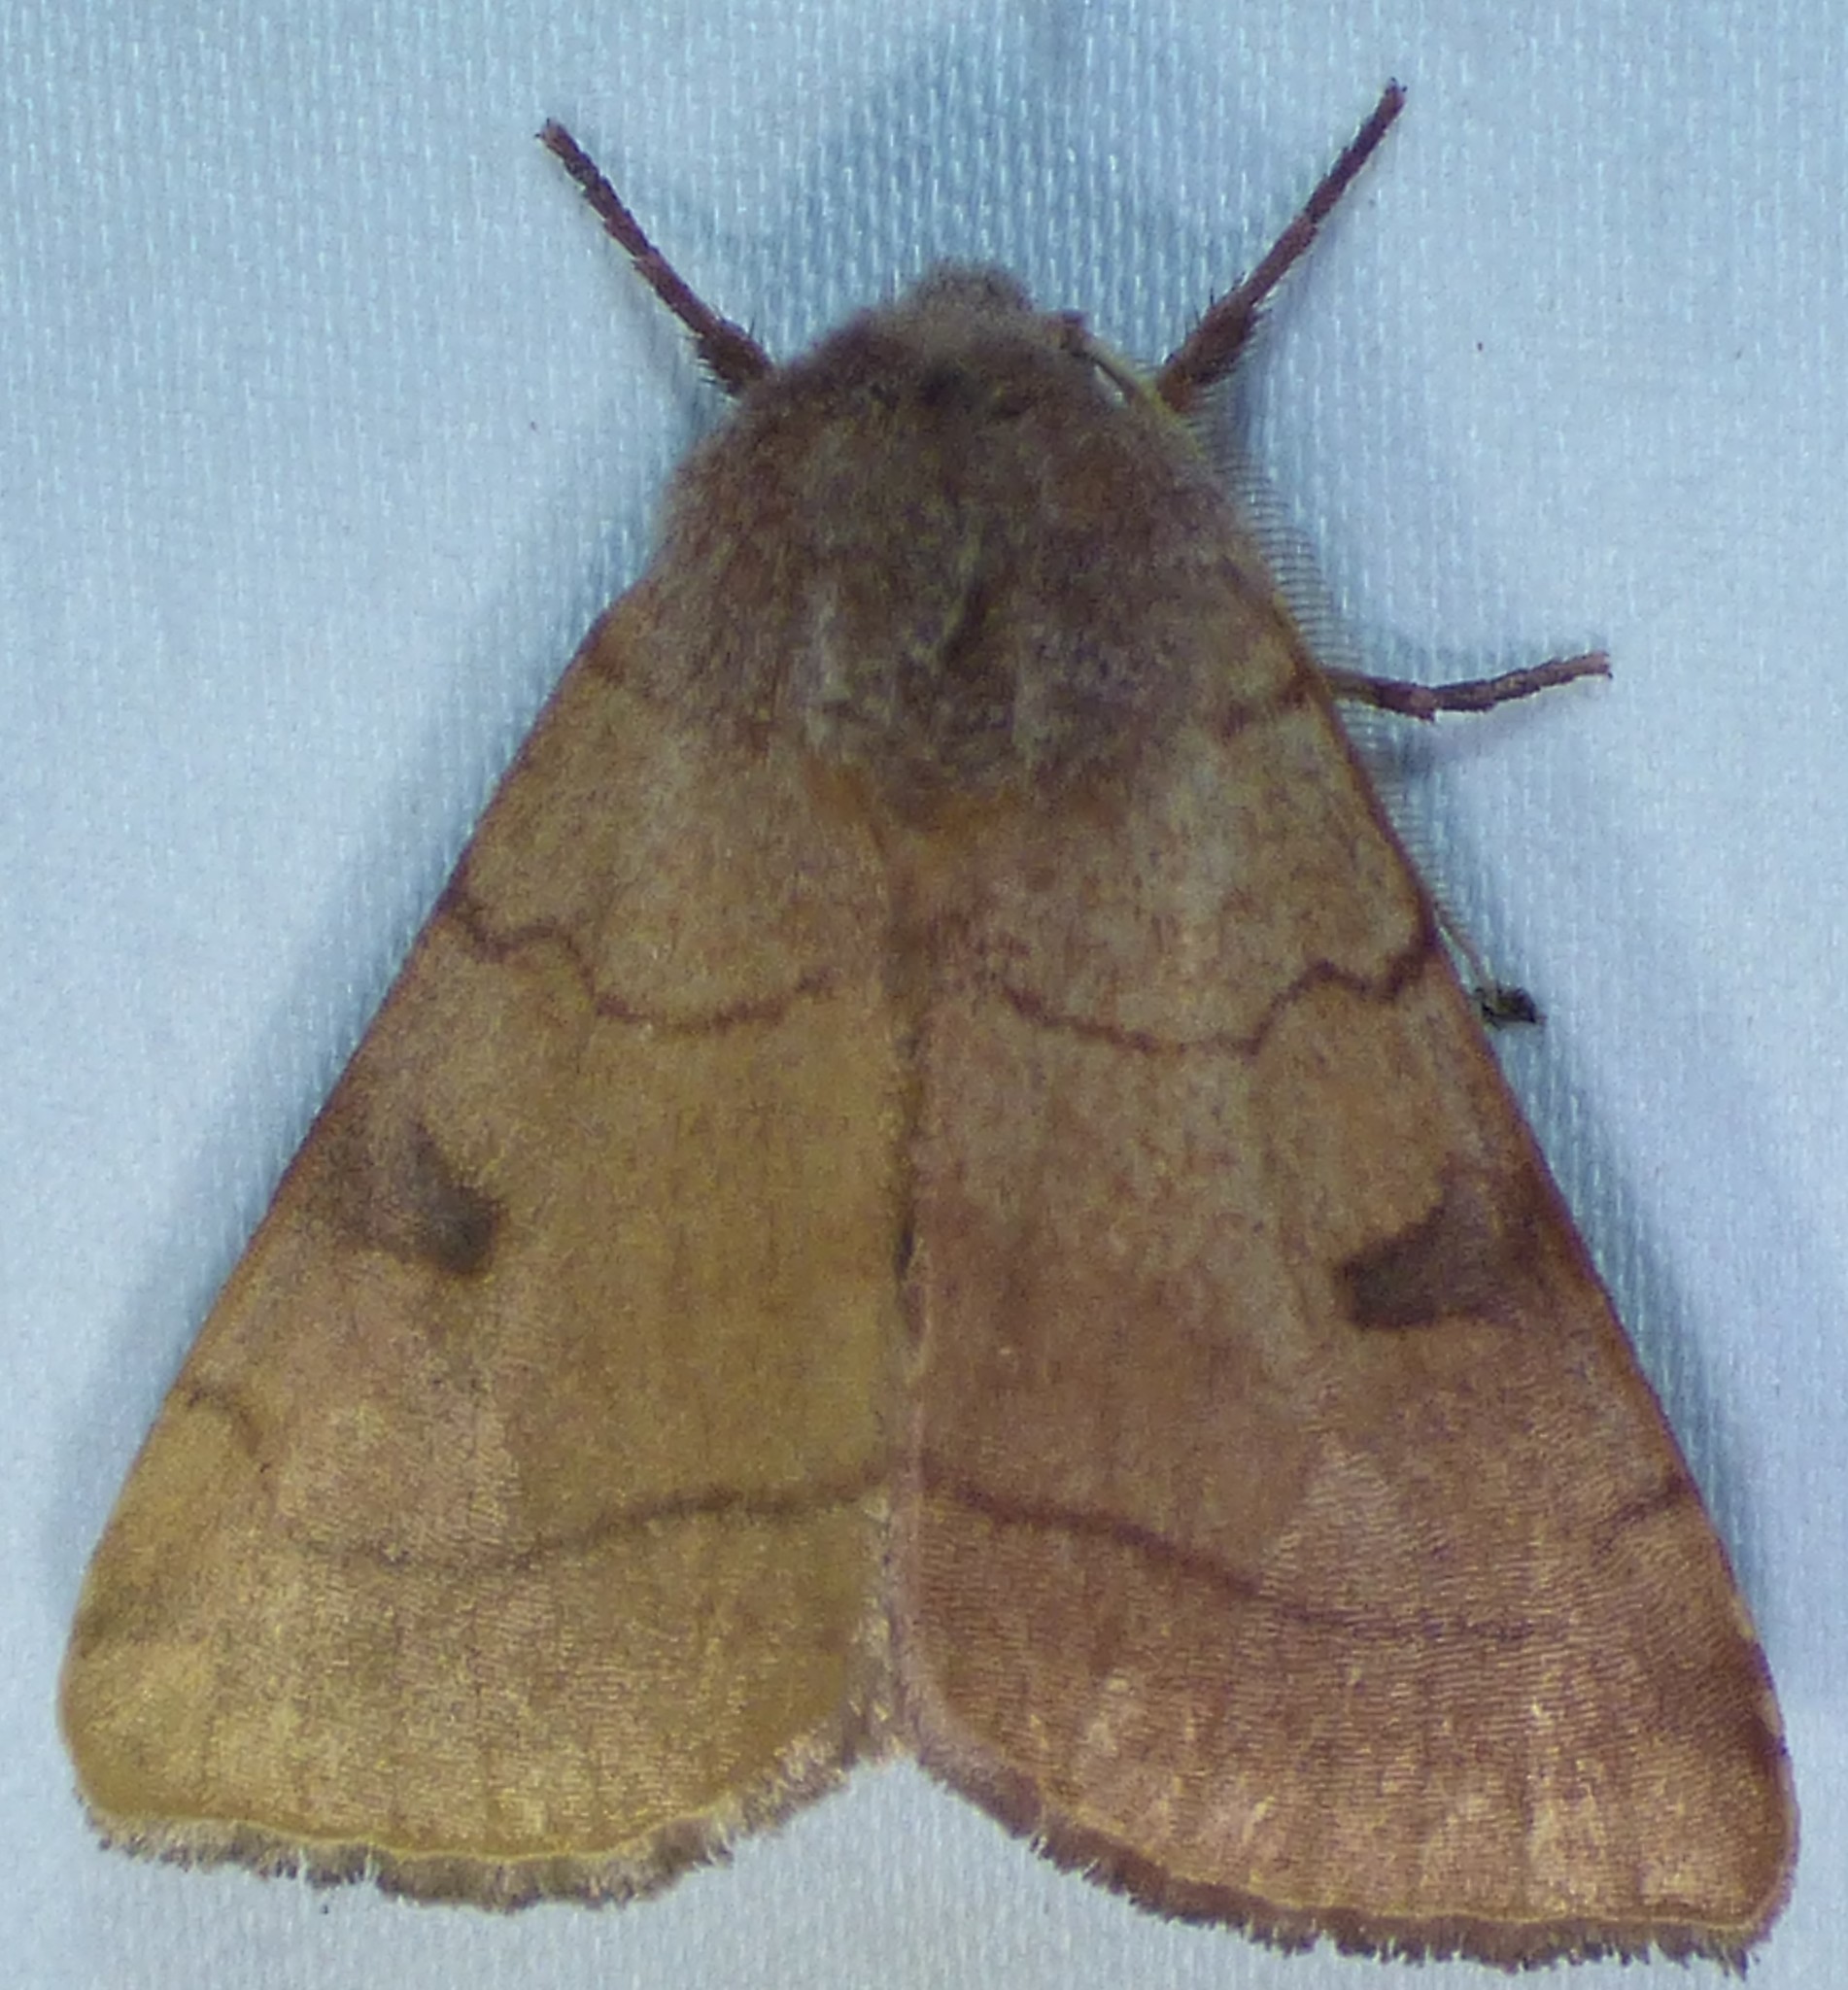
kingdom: Animalia
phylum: Arthropoda
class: Insecta
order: Lepidoptera
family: Noctuidae
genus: Choephora
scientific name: Choephora fungorum
